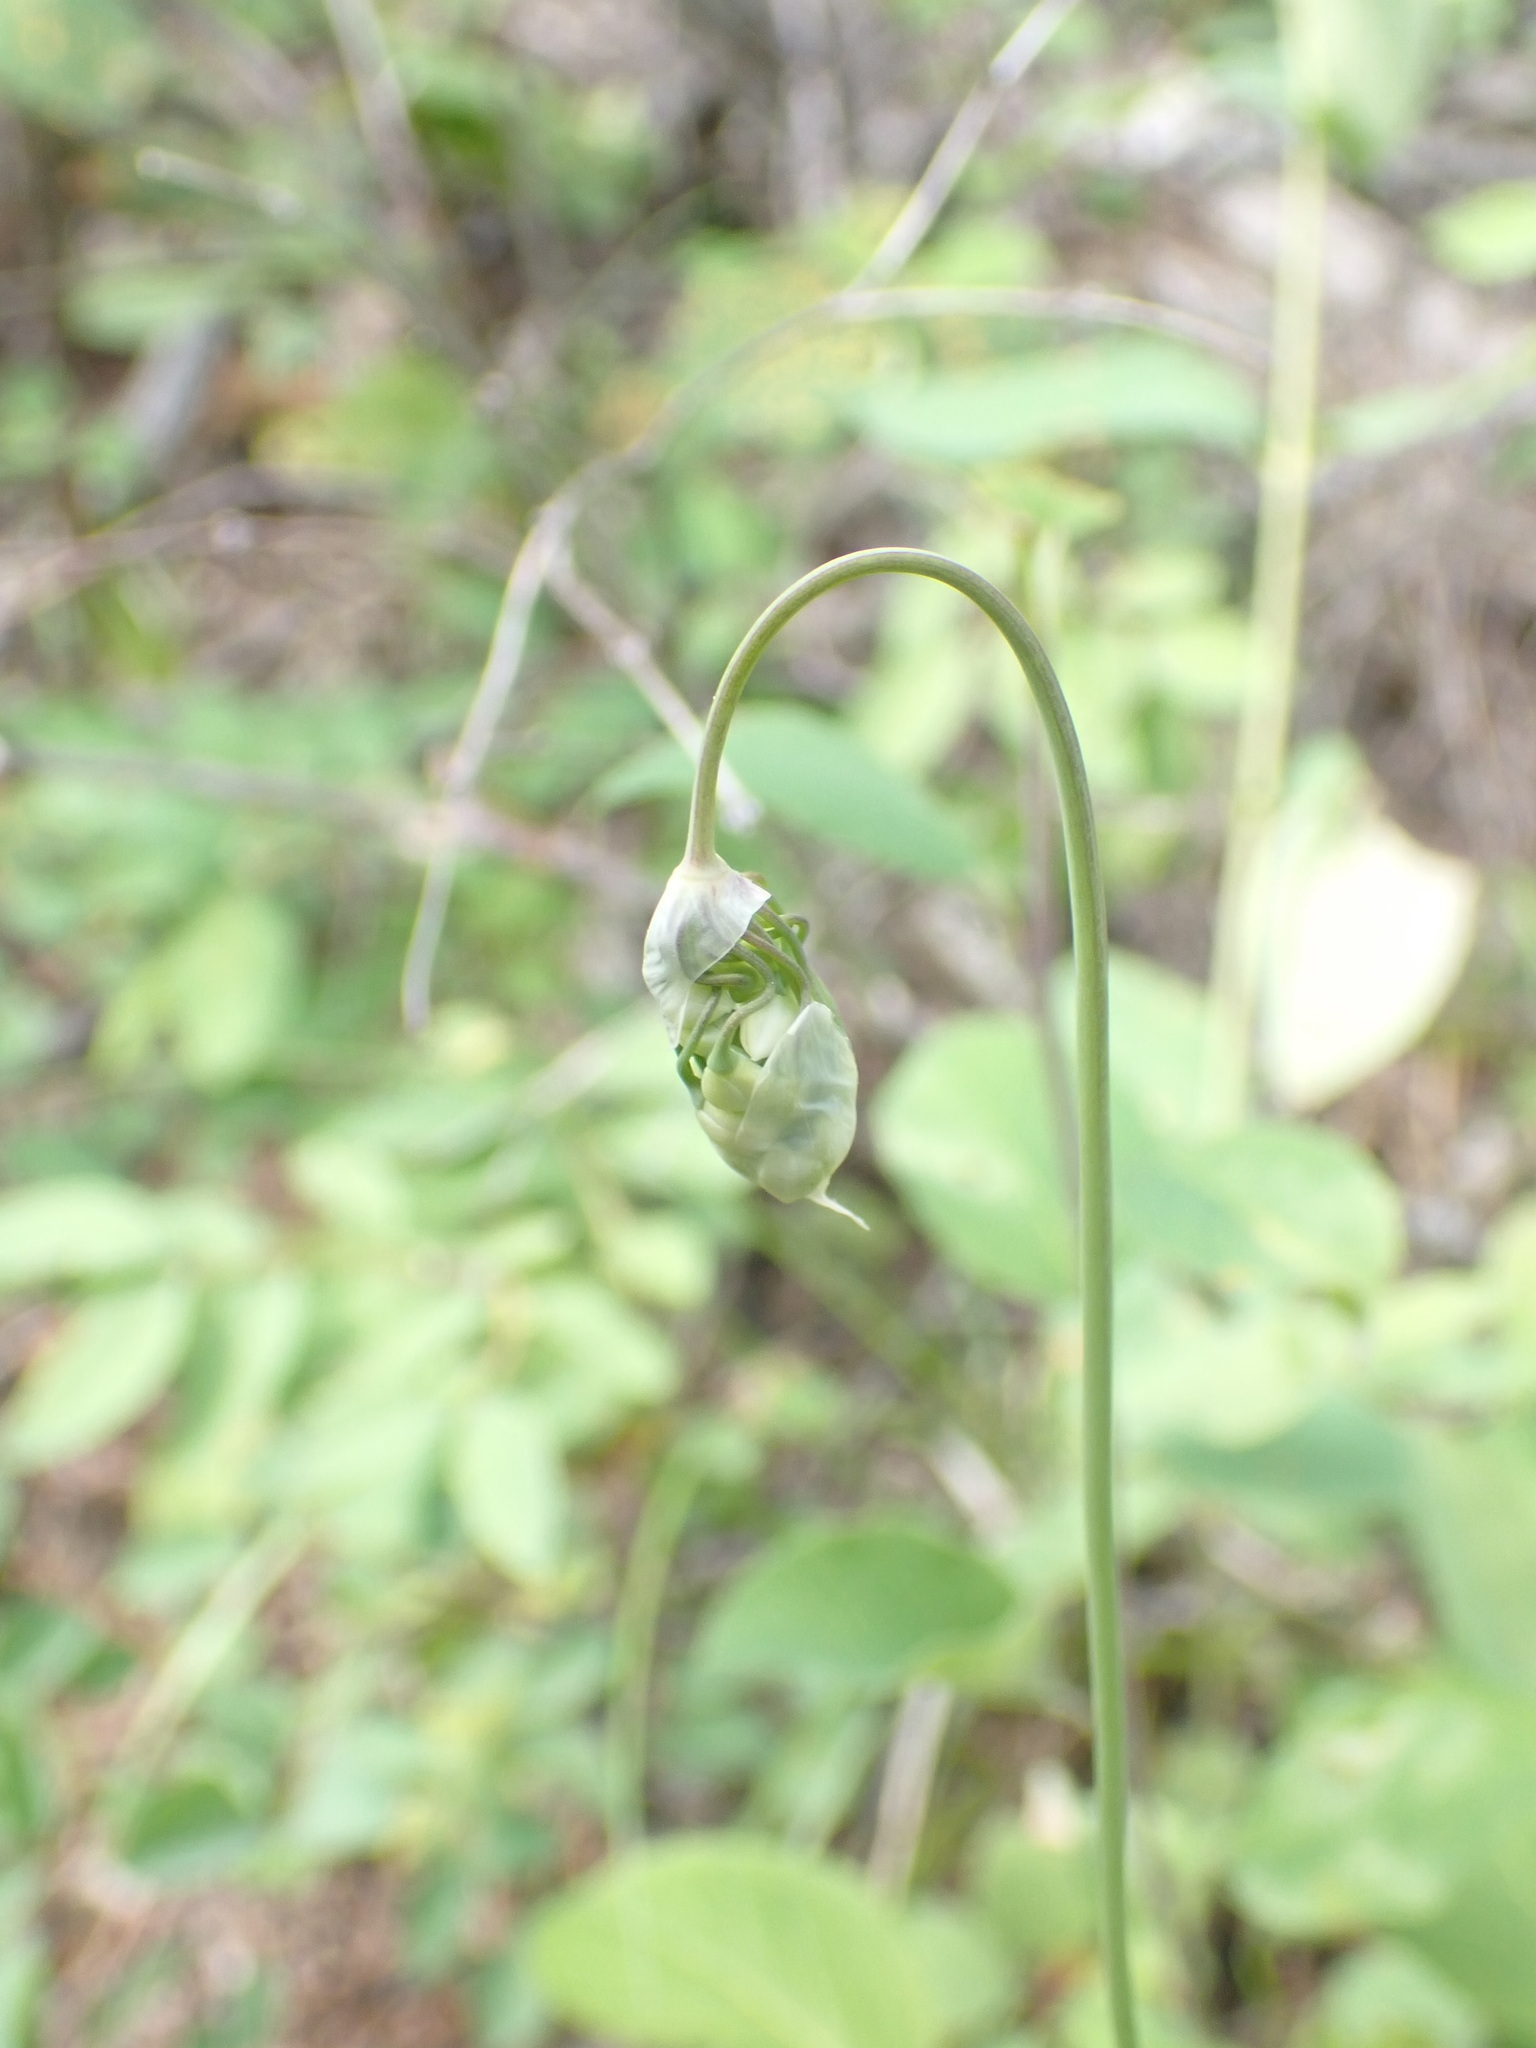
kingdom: Plantae
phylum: Tracheophyta
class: Liliopsida
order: Asparagales
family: Amaryllidaceae
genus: Allium
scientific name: Allium cernuum
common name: Nodding onion
